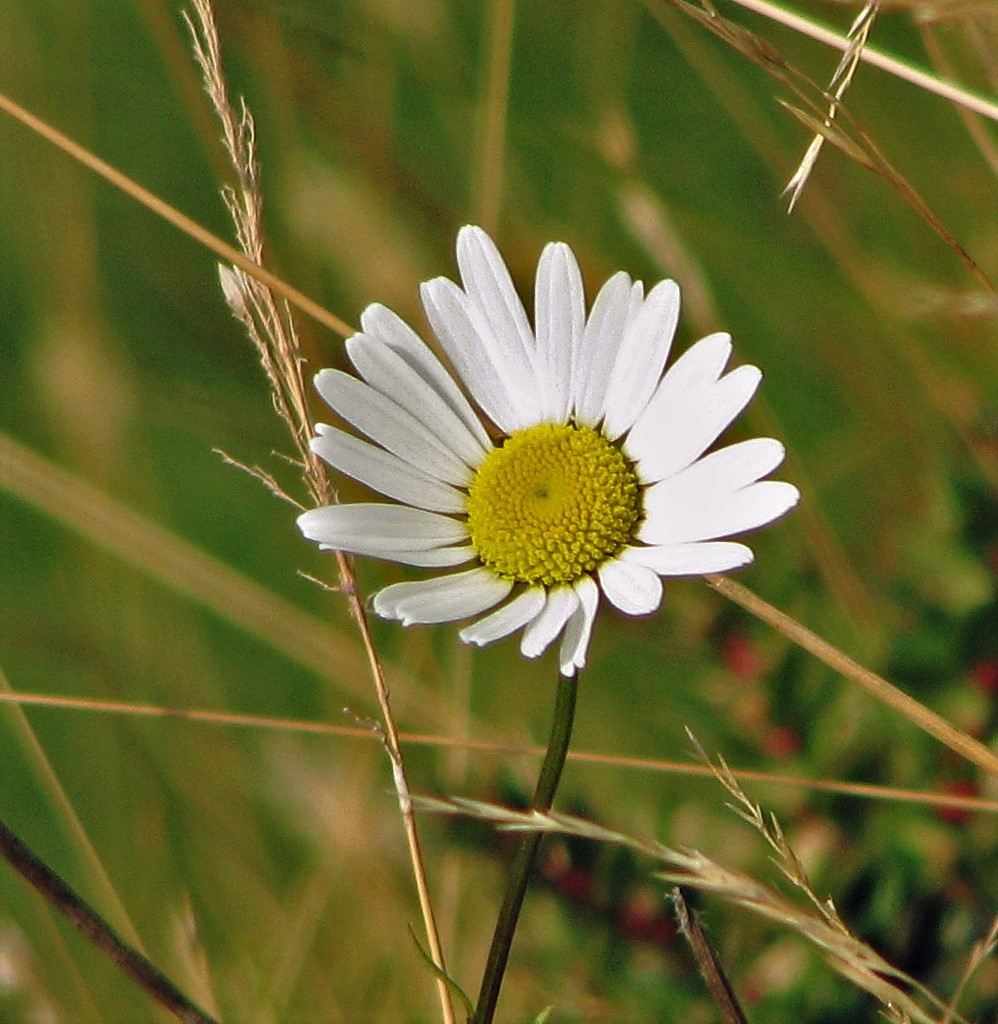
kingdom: Plantae
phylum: Tracheophyta
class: Magnoliopsida
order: Asterales
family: Asteraceae
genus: Leucanthemum
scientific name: Leucanthemum vulgare
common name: Oxeye daisy
